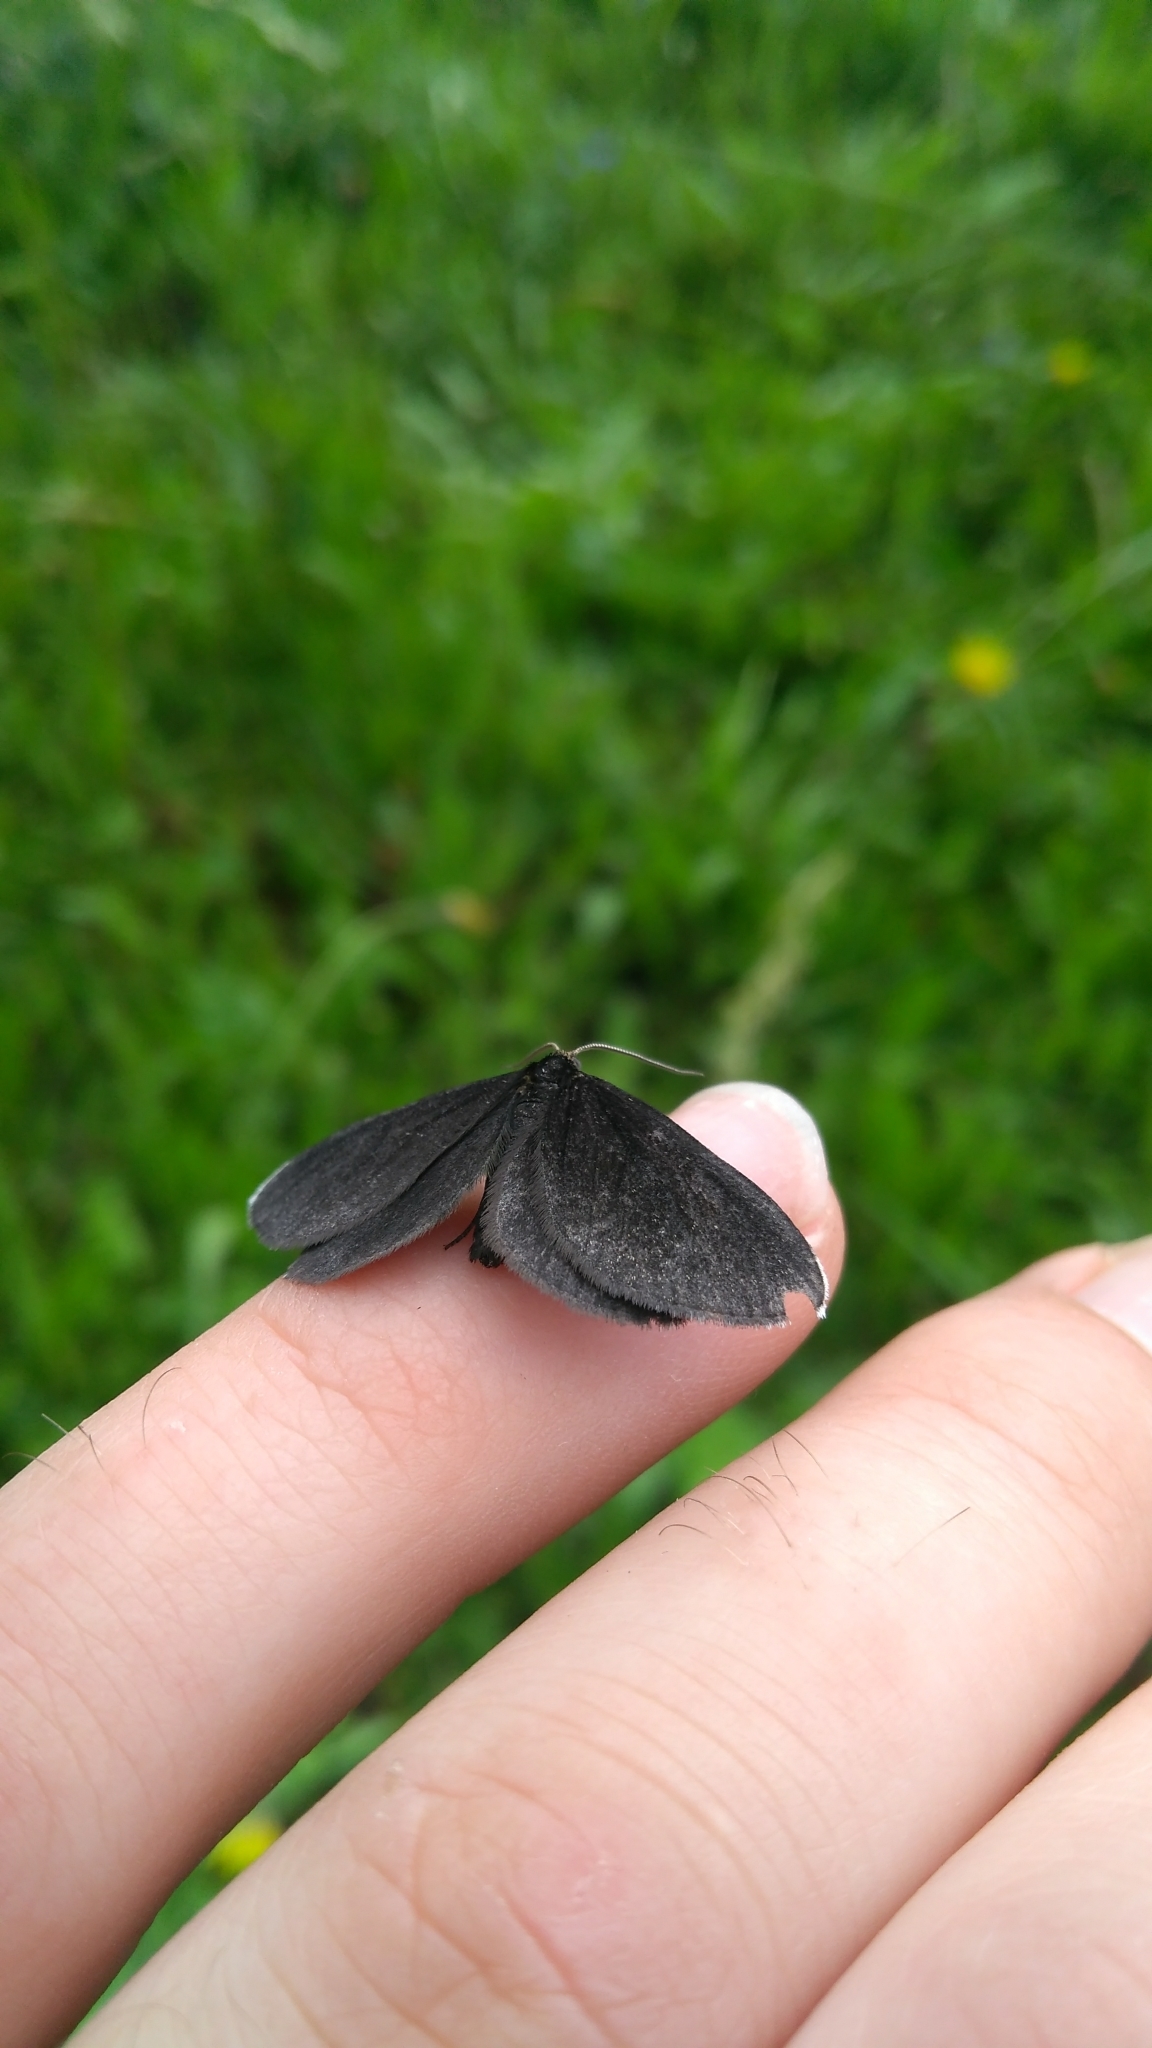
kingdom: Animalia
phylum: Arthropoda
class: Insecta
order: Lepidoptera
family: Geometridae
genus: Odezia
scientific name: Odezia atrata
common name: Chimney sweeper
